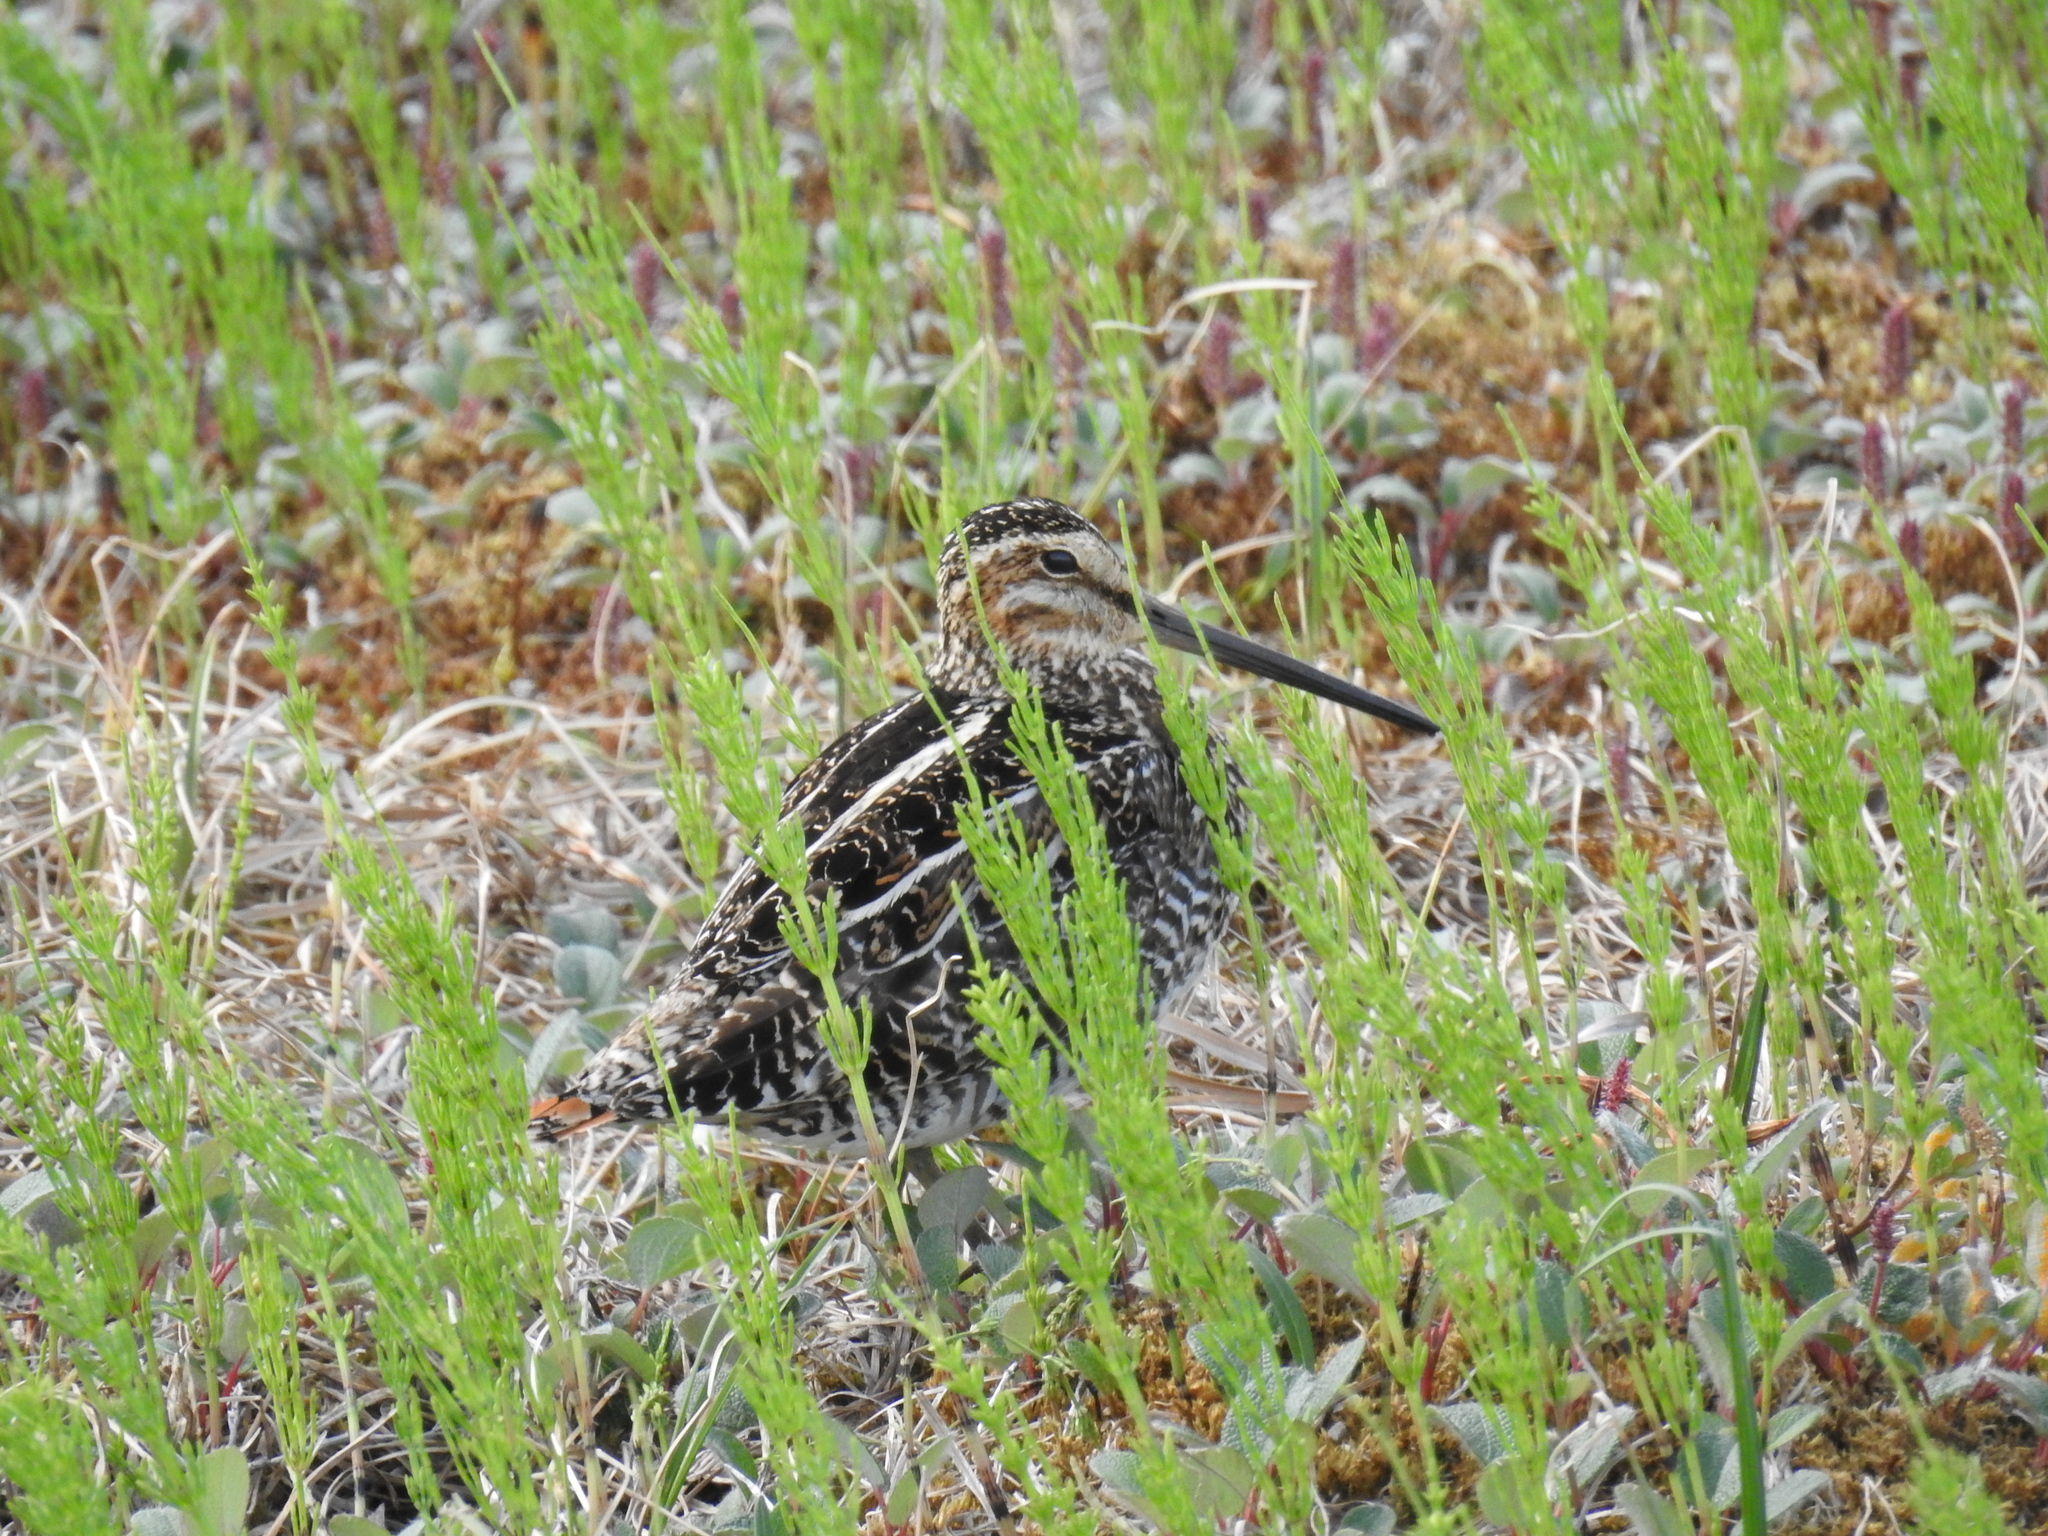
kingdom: Animalia
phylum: Chordata
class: Aves
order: Charadriiformes
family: Scolopacidae
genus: Gallinago
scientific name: Gallinago delicata
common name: Wilson's snipe
